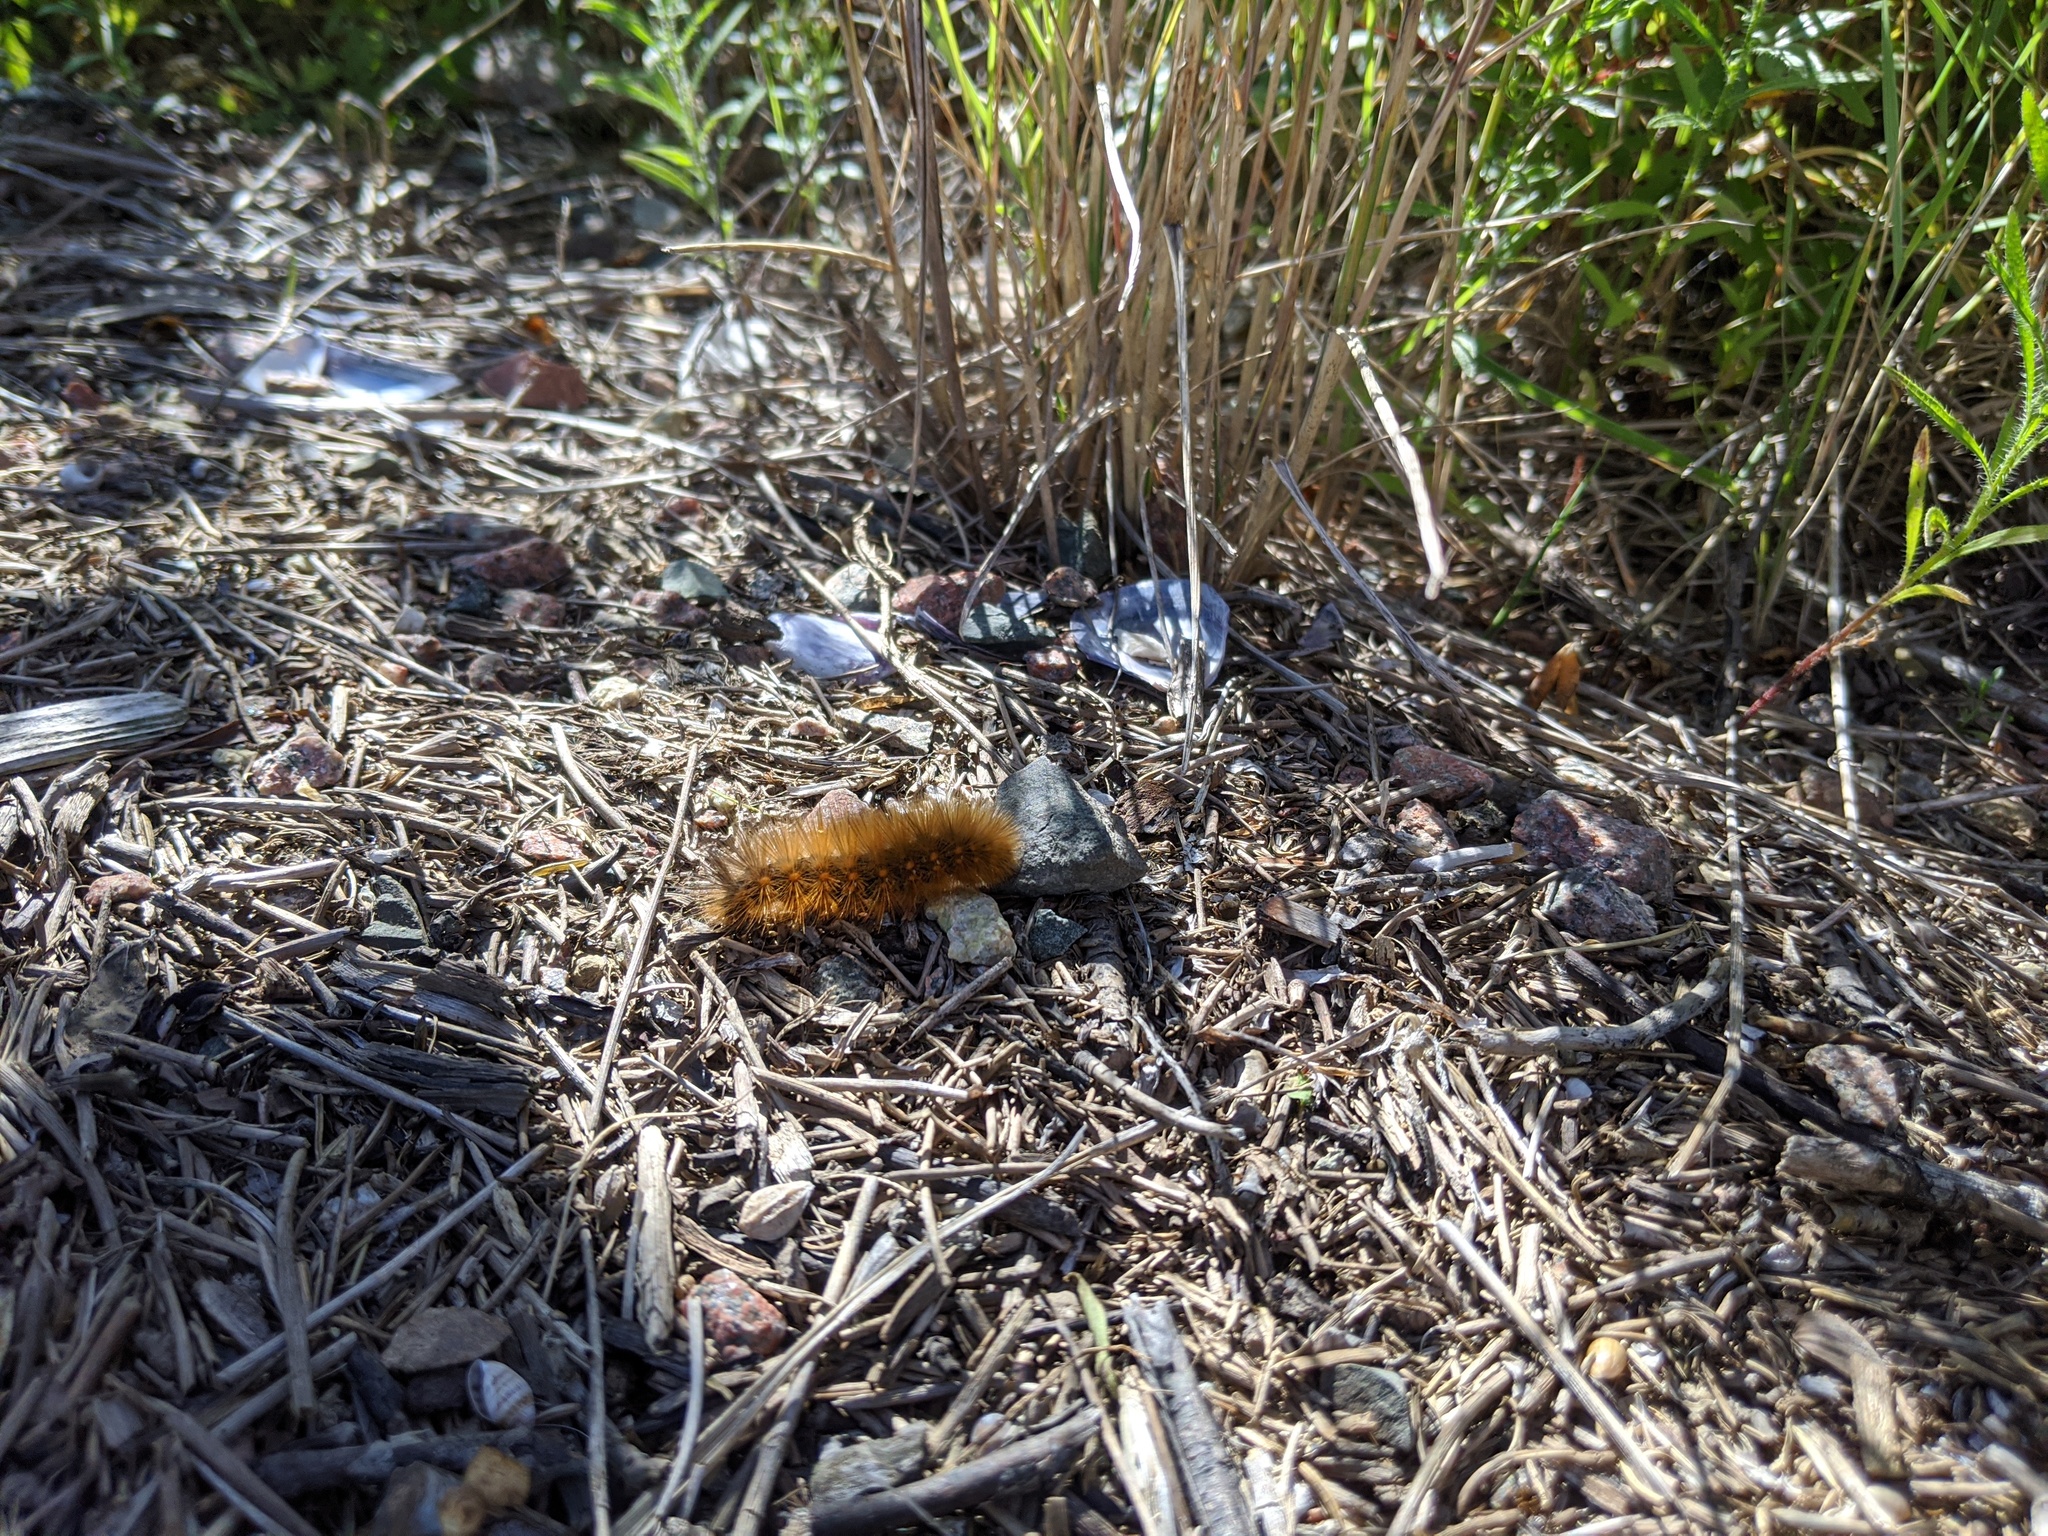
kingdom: Animalia
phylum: Arthropoda
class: Insecta
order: Lepidoptera
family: Erebidae
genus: Estigmene
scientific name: Estigmene acrea
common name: Salt marsh moth
